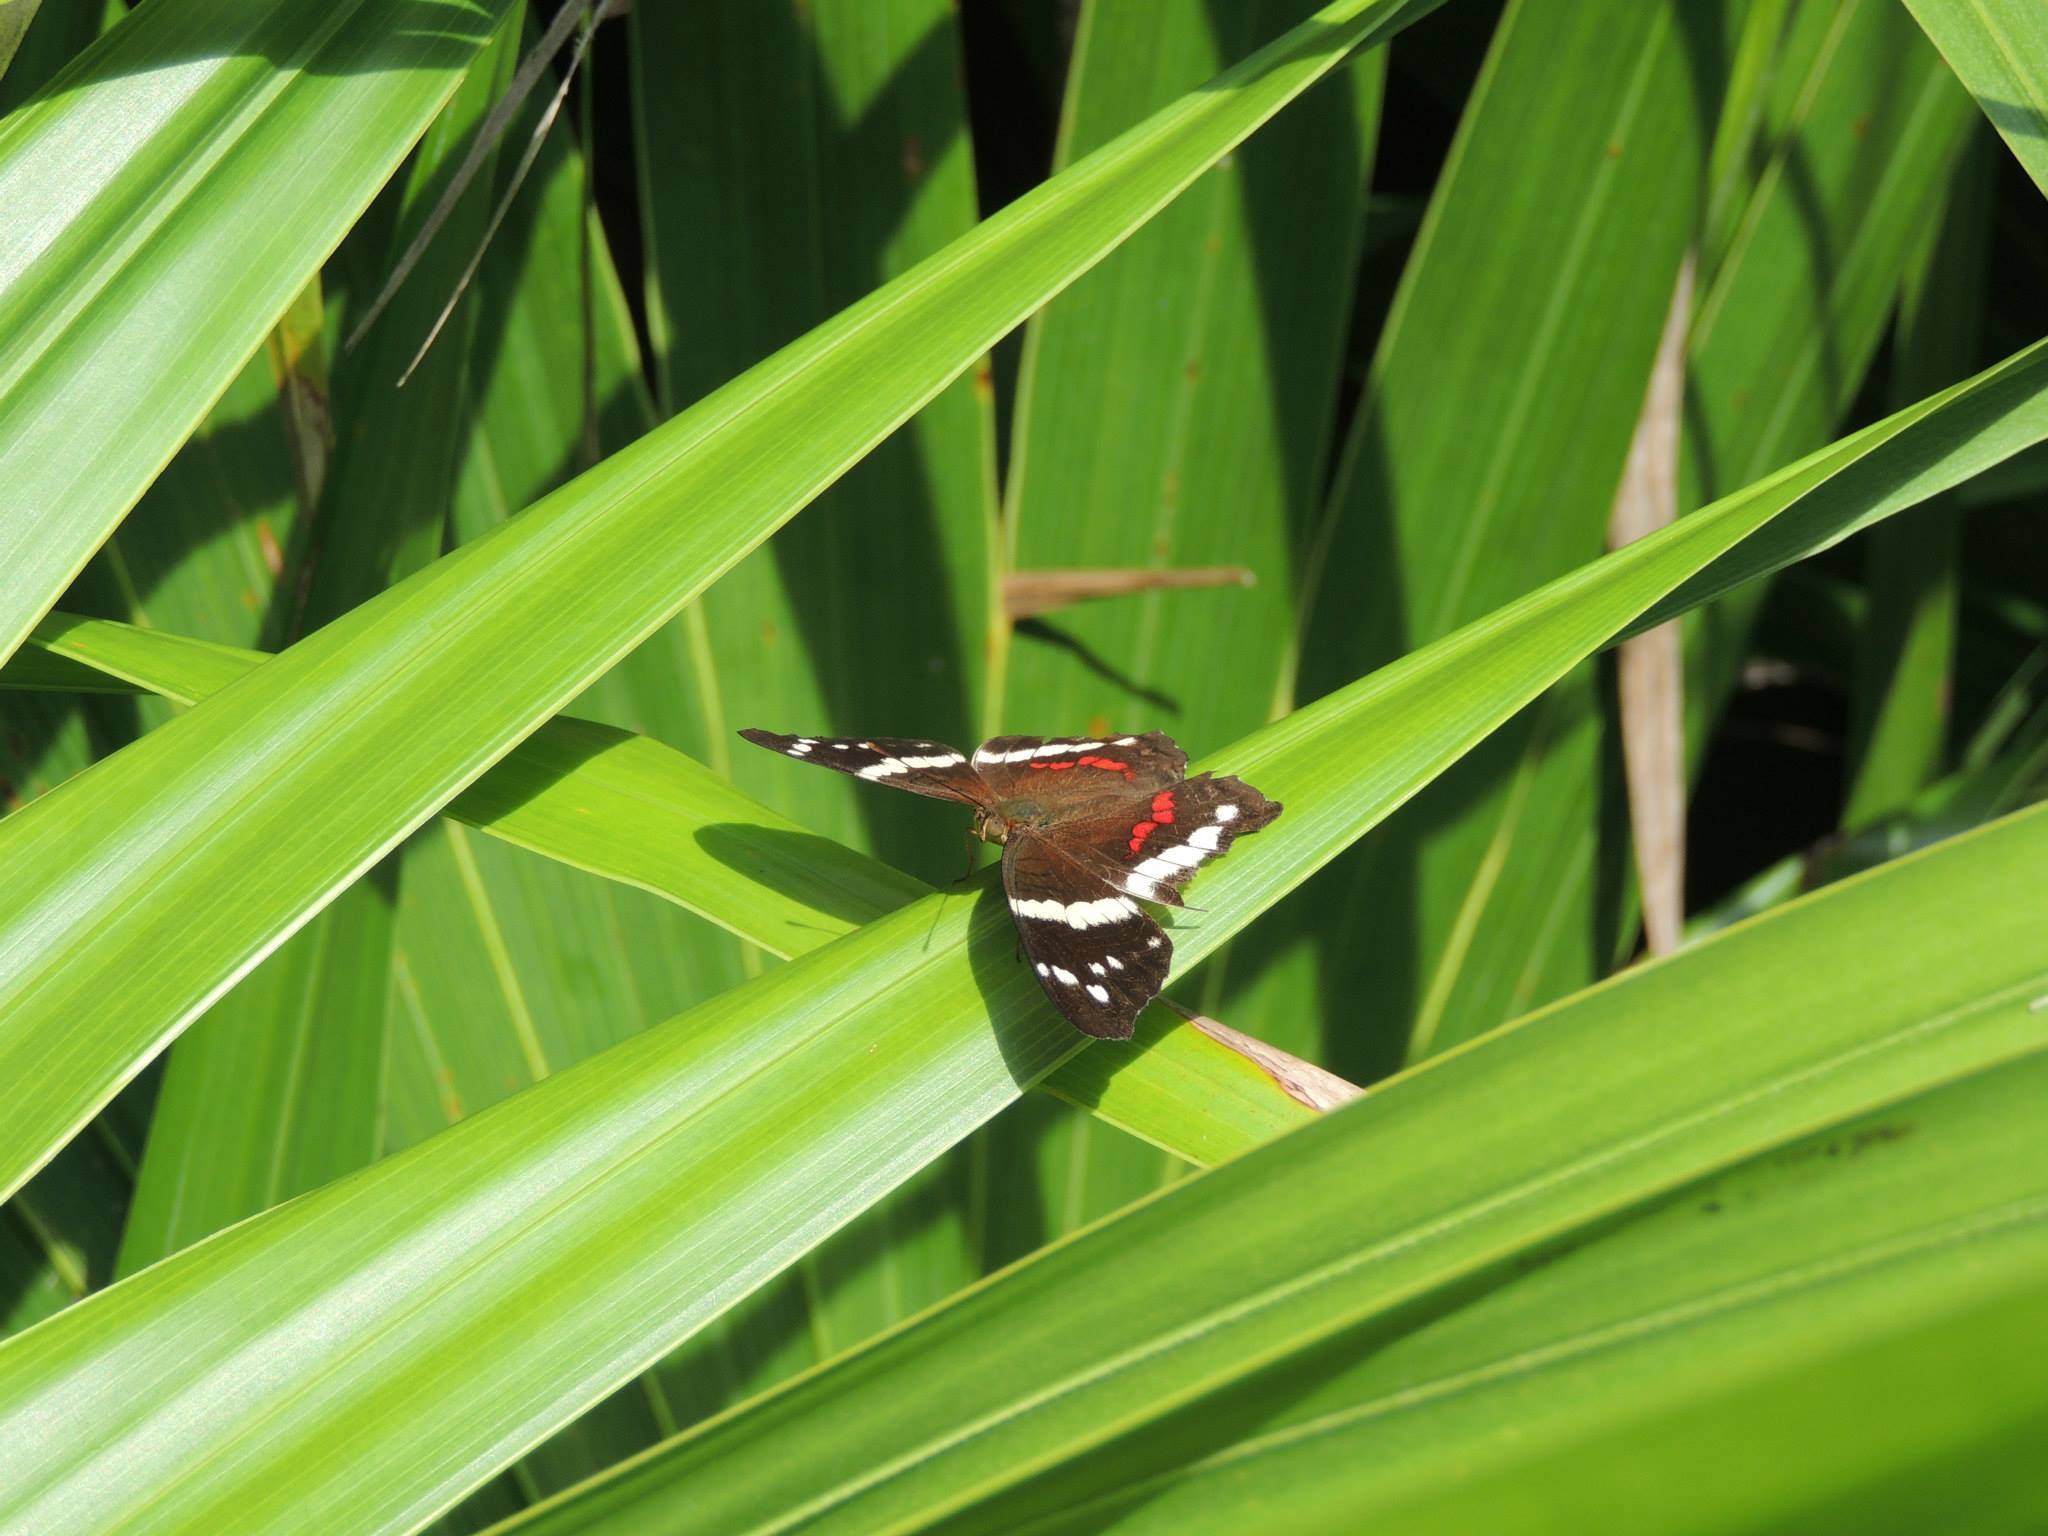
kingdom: Animalia
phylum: Arthropoda
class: Insecta
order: Lepidoptera
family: Nymphalidae
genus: Anartia
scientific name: Anartia fatima
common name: Banded peacock
